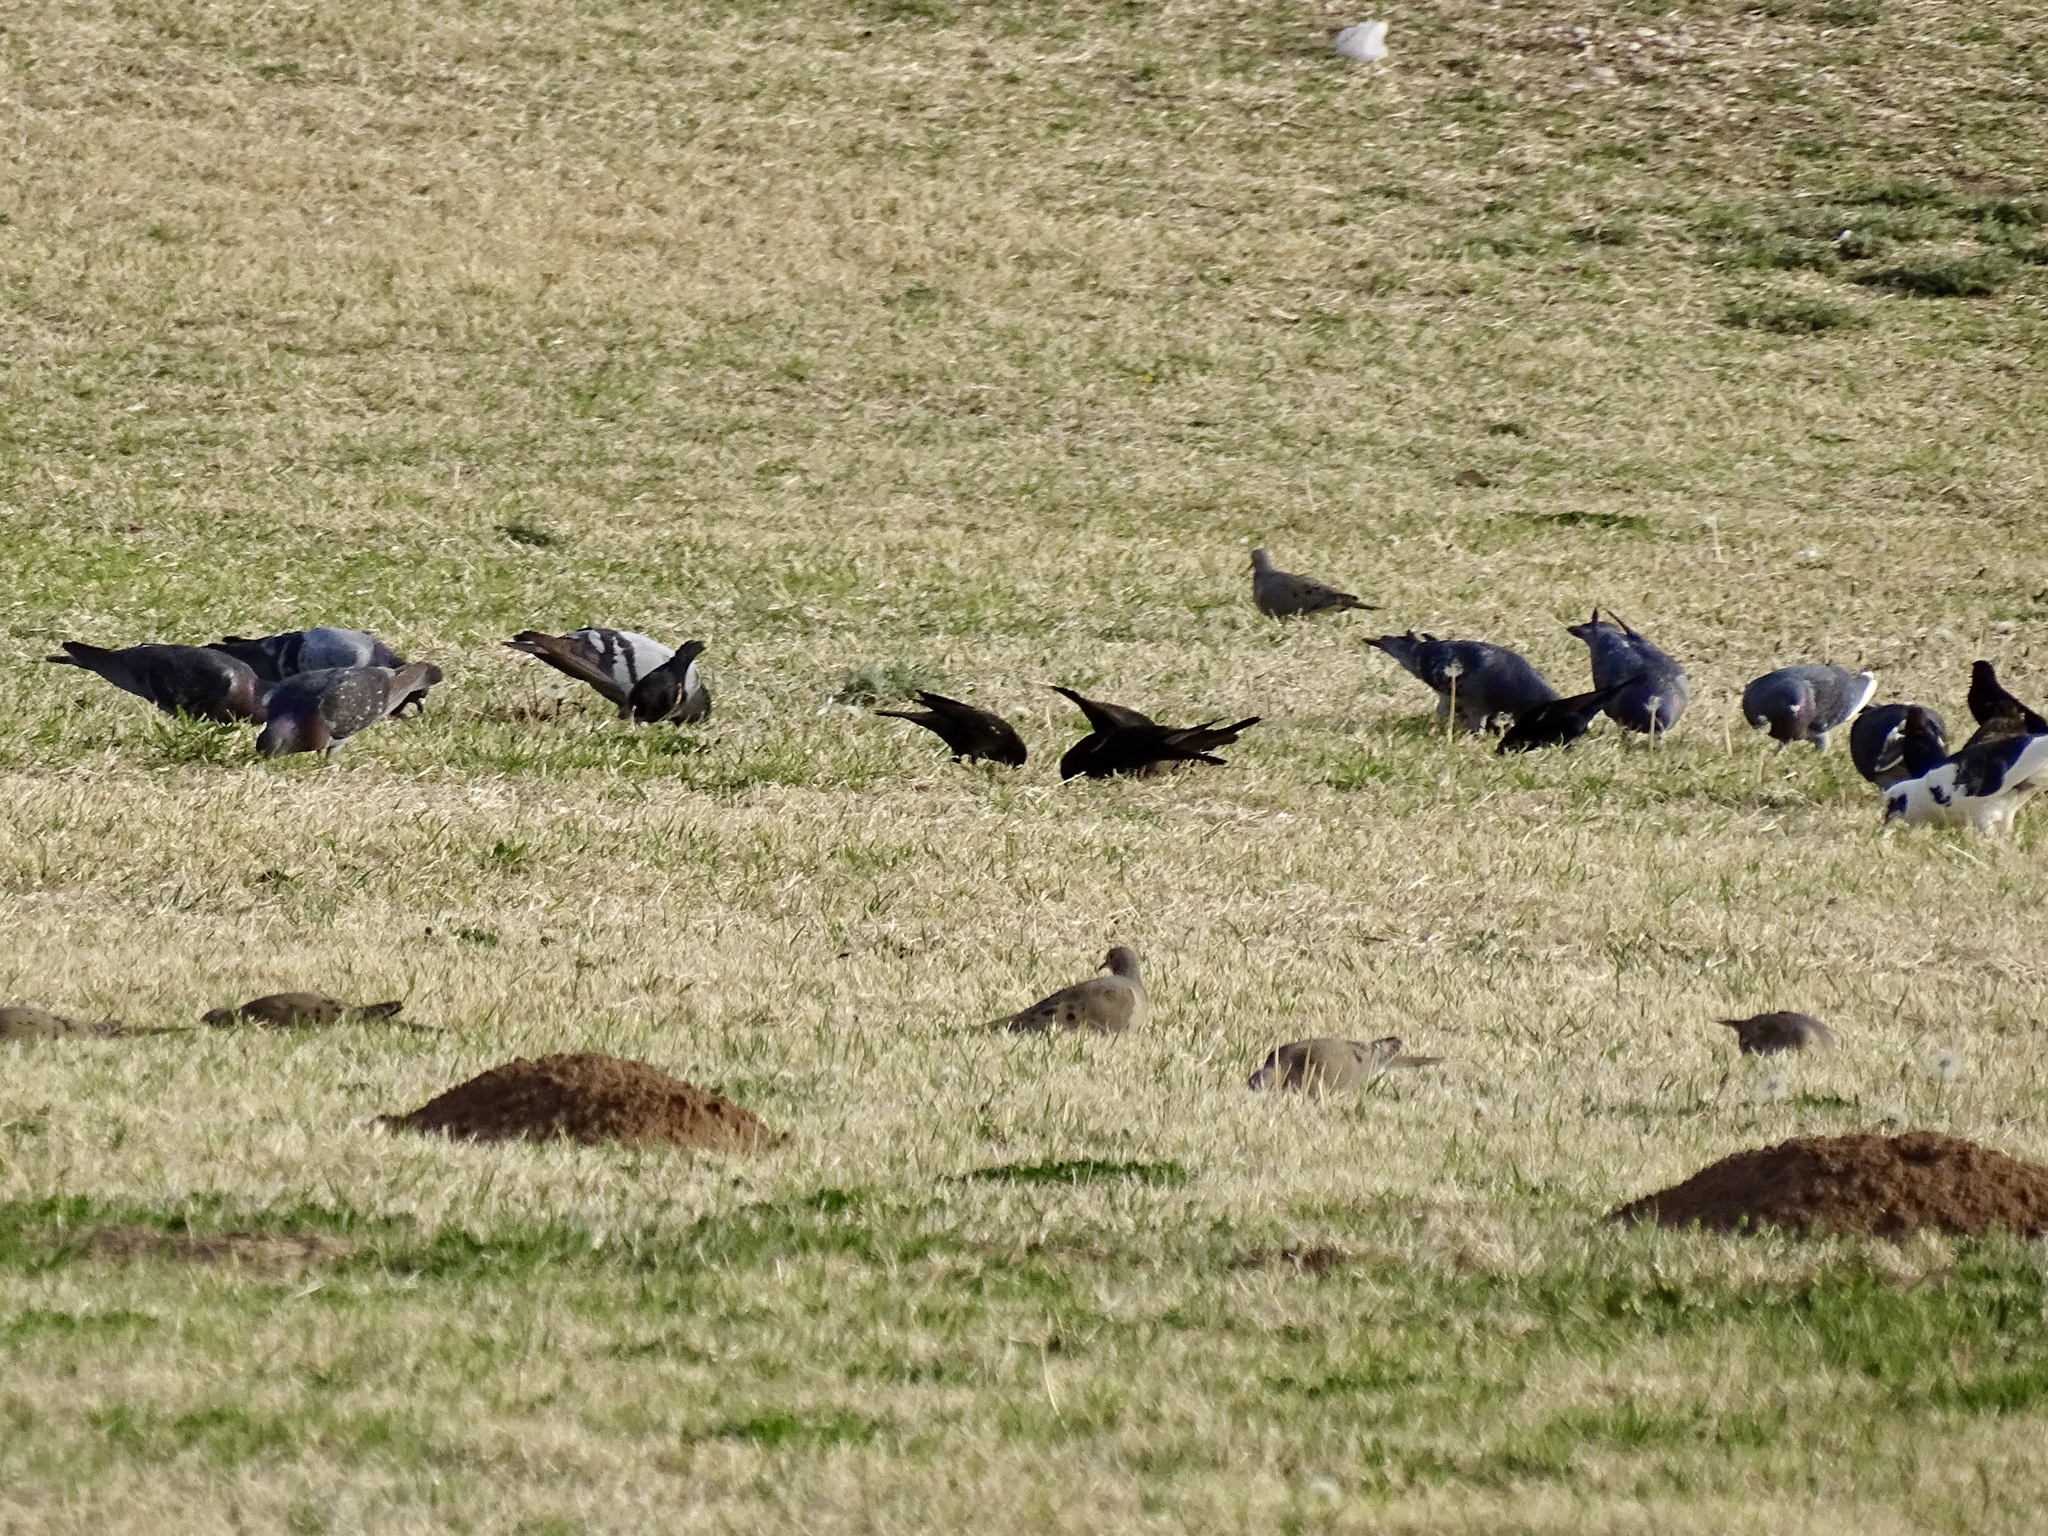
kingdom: Animalia
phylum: Chordata
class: Aves
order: Columbiformes
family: Columbidae
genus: Columba
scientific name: Columba livia
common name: Rock pigeon
